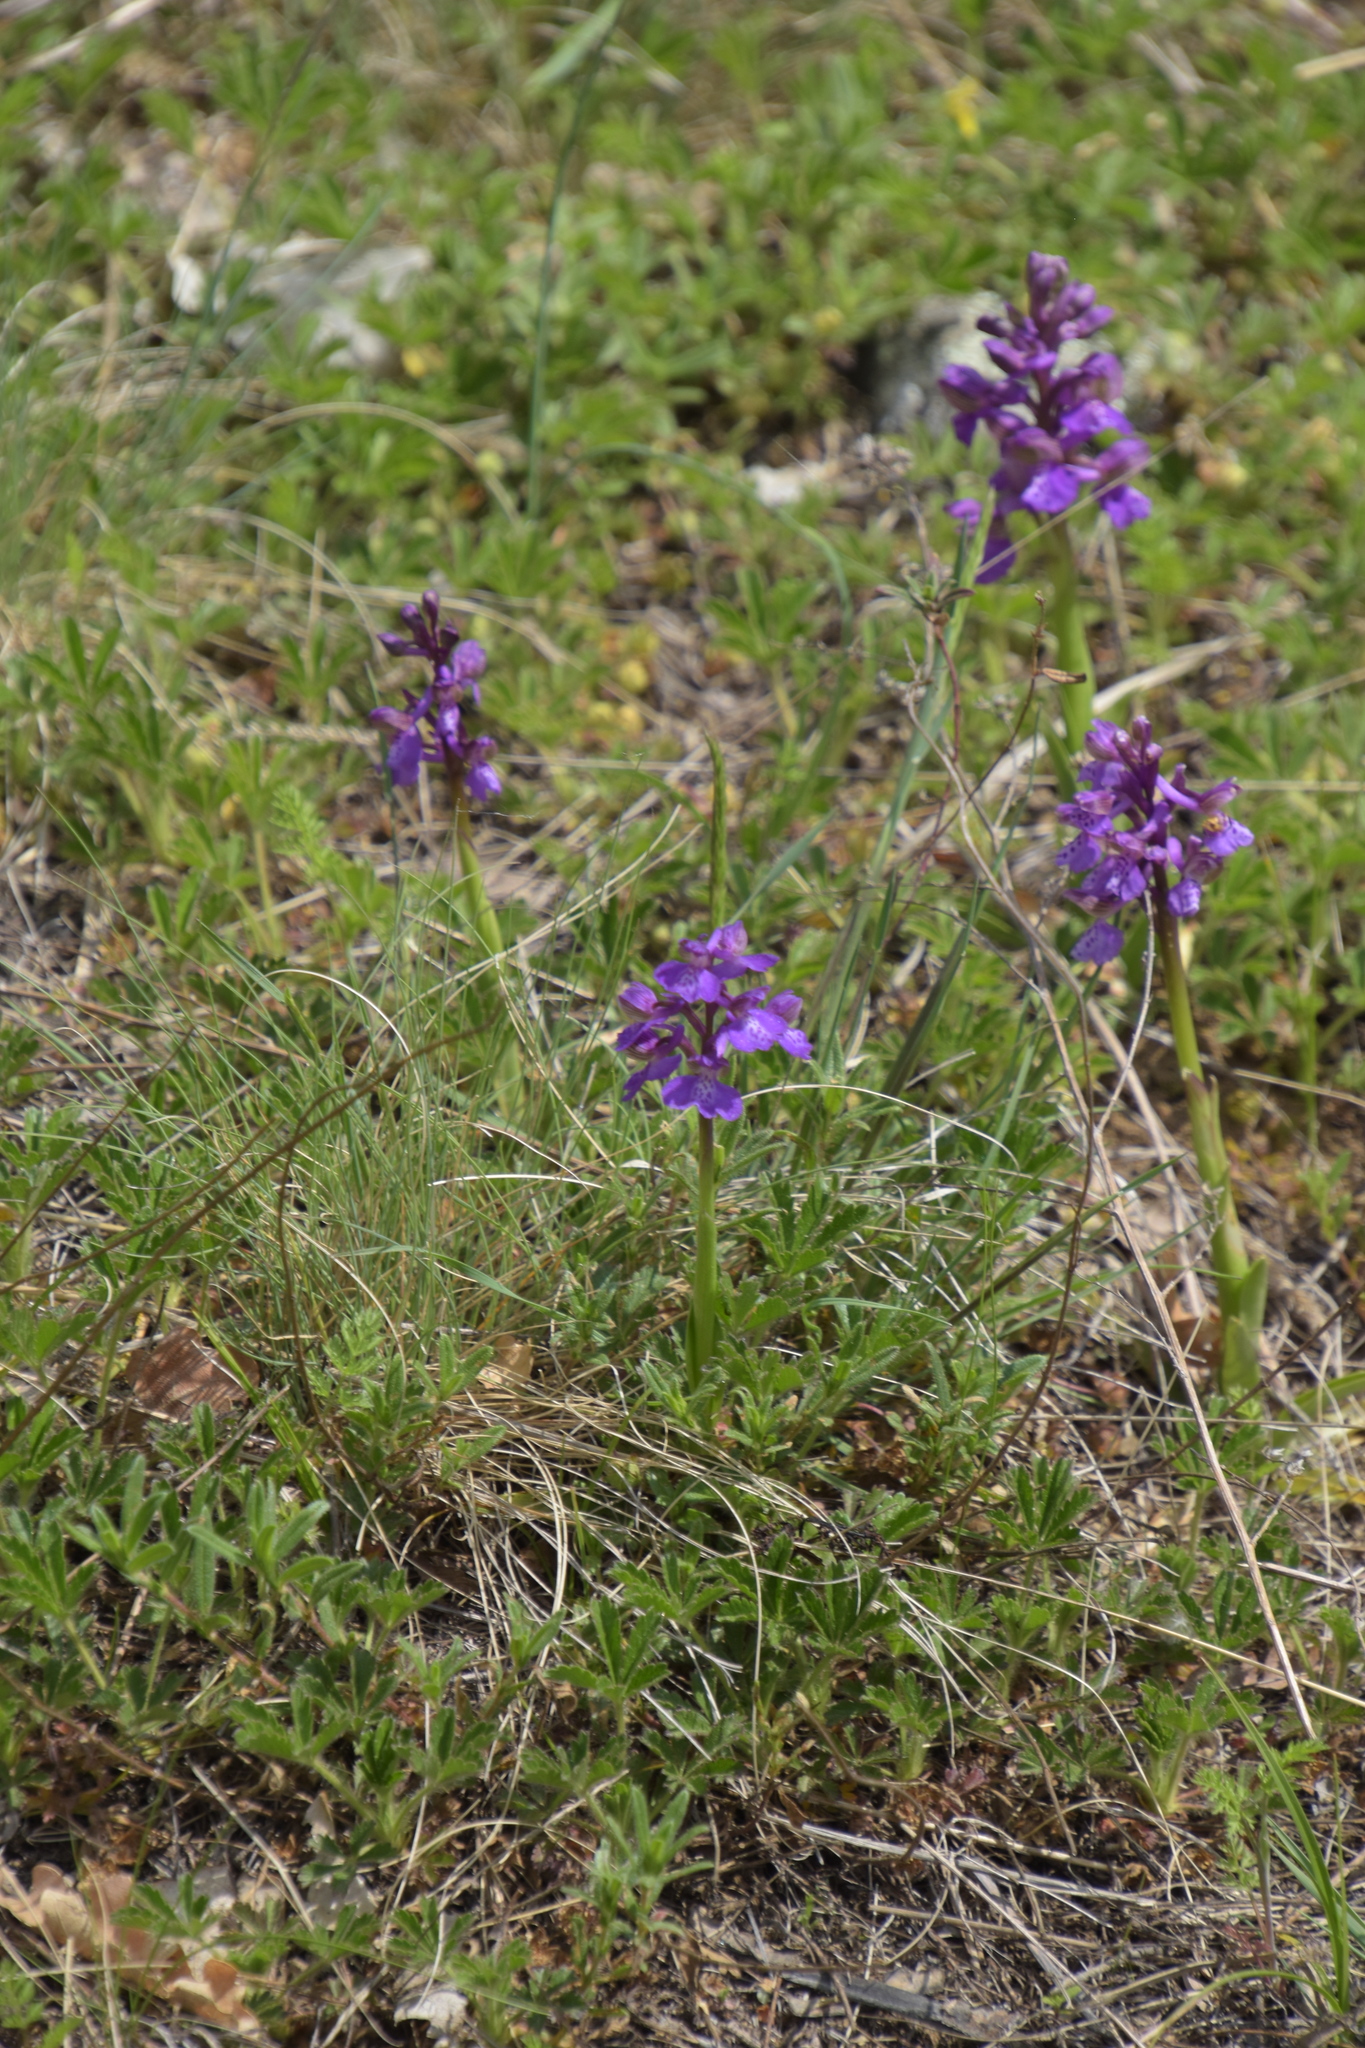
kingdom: Plantae
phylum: Tracheophyta
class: Liliopsida
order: Asparagales
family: Orchidaceae
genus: Anacamptis
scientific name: Anacamptis morio
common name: Green-winged orchid
